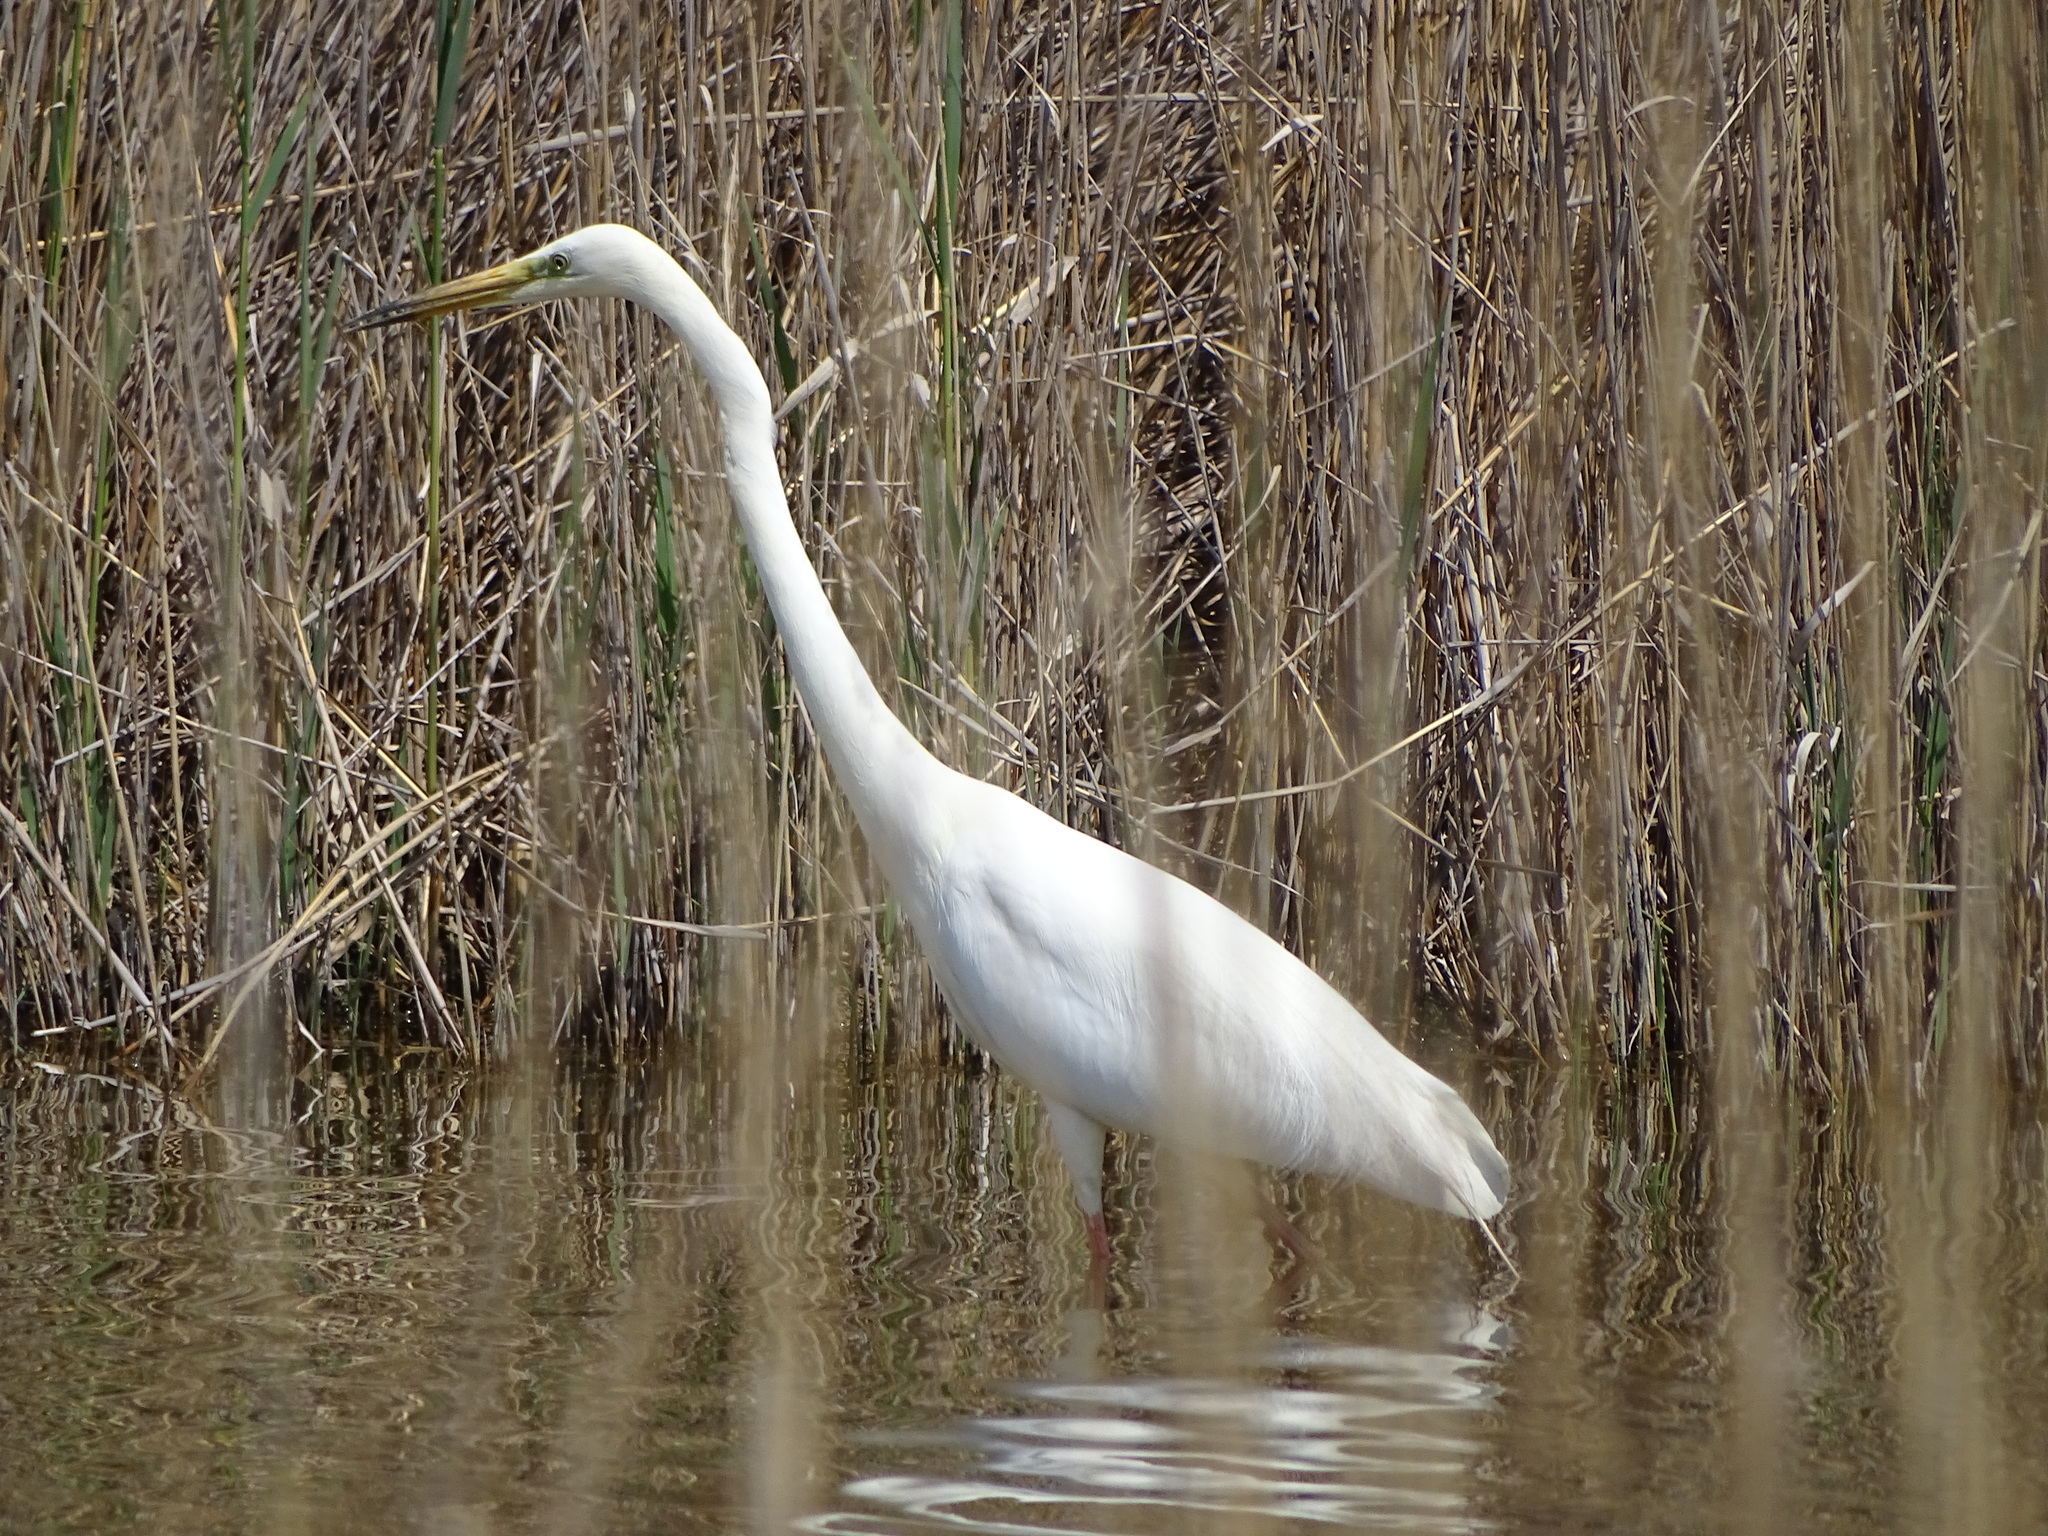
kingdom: Animalia
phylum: Chordata
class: Aves
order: Pelecaniformes
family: Ardeidae
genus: Ardea
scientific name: Ardea alba
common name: Great egret
